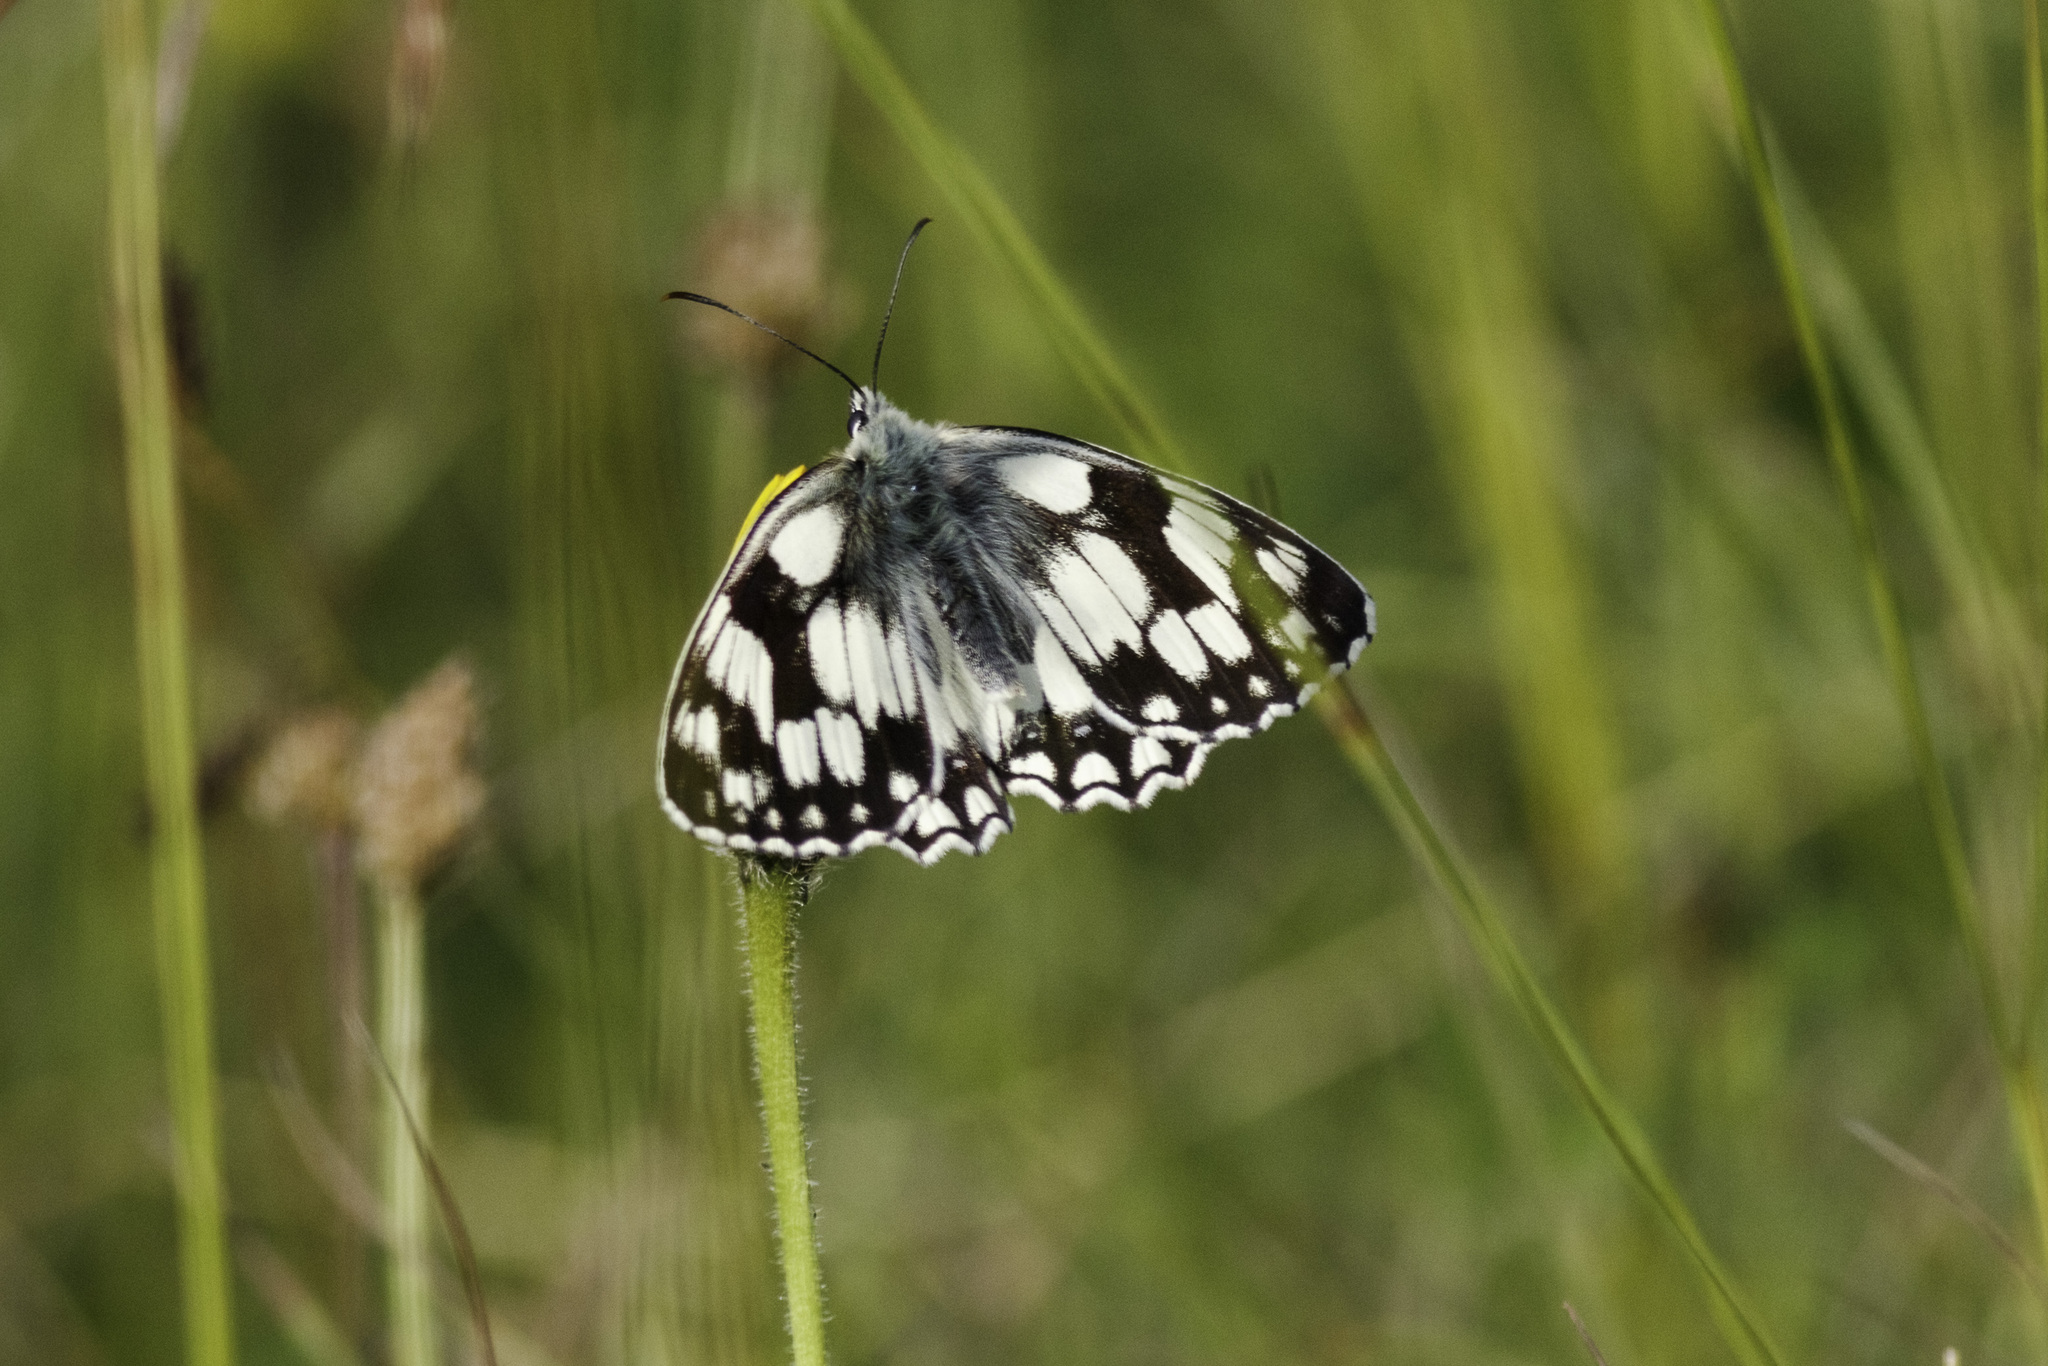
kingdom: Animalia
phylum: Arthropoda
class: Insecta
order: Lepidoptera
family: Nymphalidae
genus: Melanargia
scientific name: Melanargia galathea
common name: Marbled white
